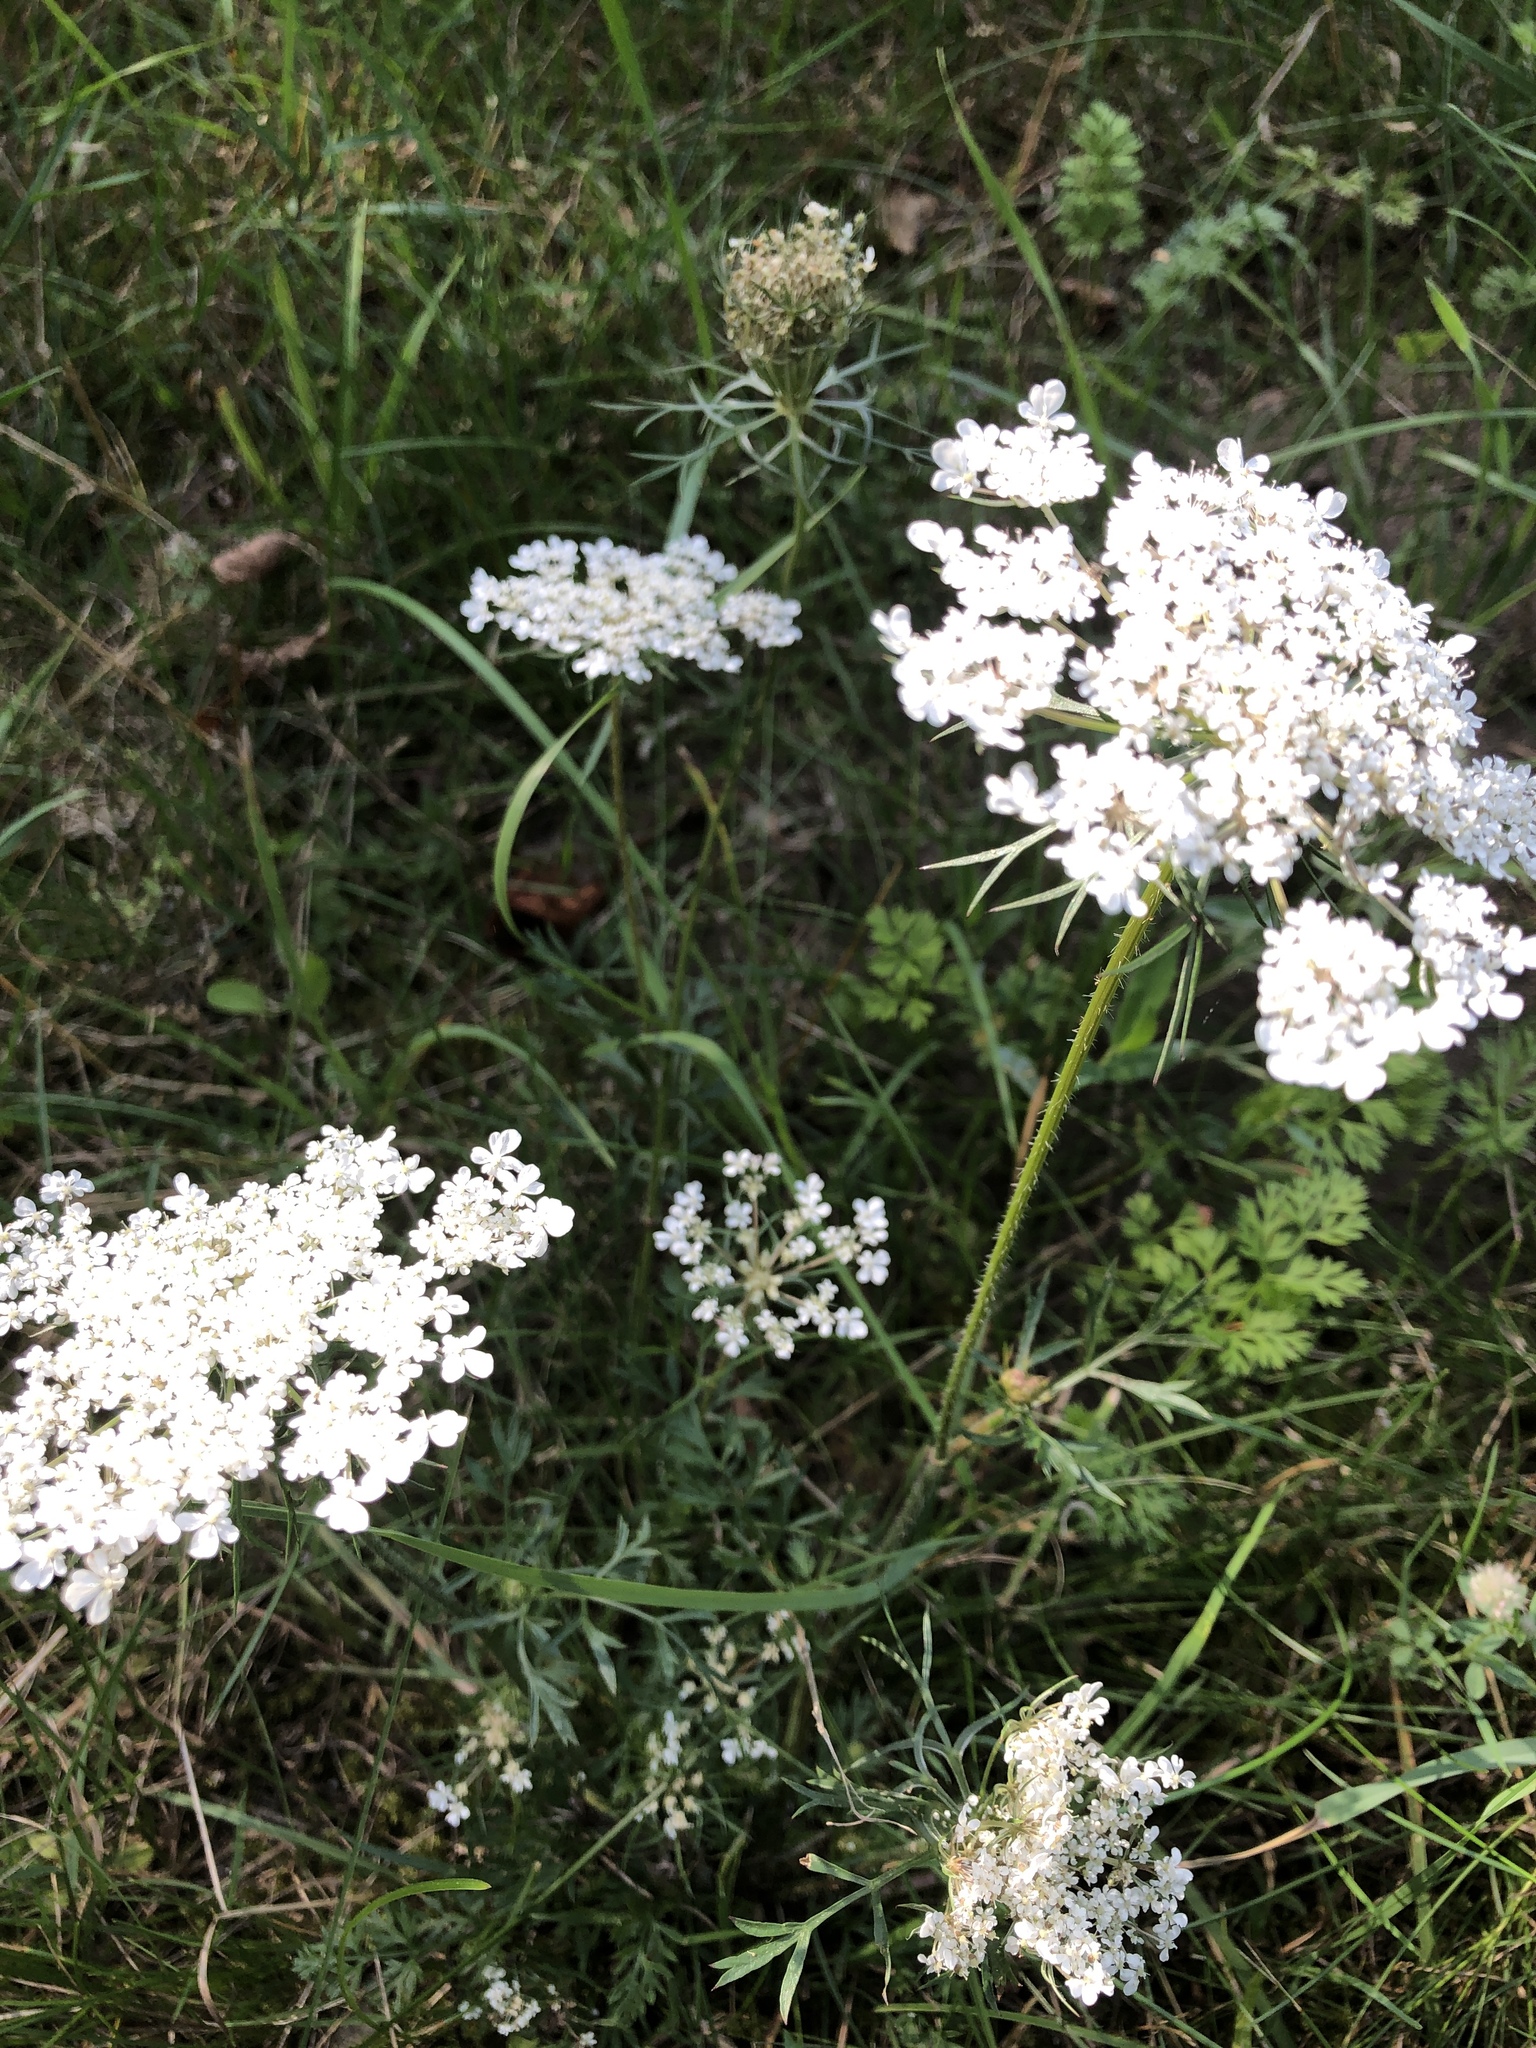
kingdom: Plantae
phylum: Tracheophyta
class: Magnoliopsida
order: Apiales
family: Apiaceae
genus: Daucus
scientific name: Daucus carota
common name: Wild carrot
